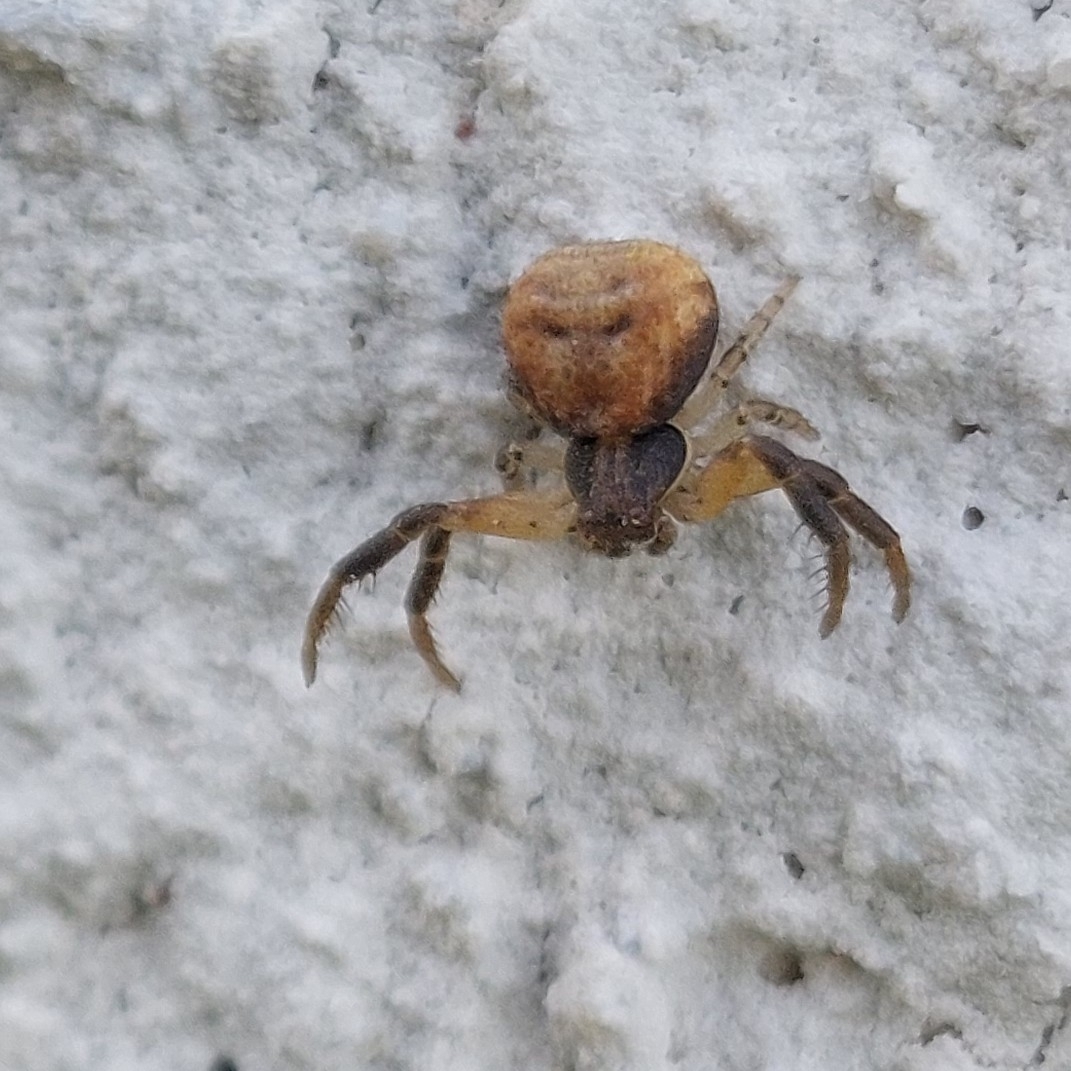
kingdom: Animalia
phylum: Arthropoda
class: Arachnida
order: Araneae
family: Thomisidae
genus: Misumenoides
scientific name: Misumenoides athleticus
